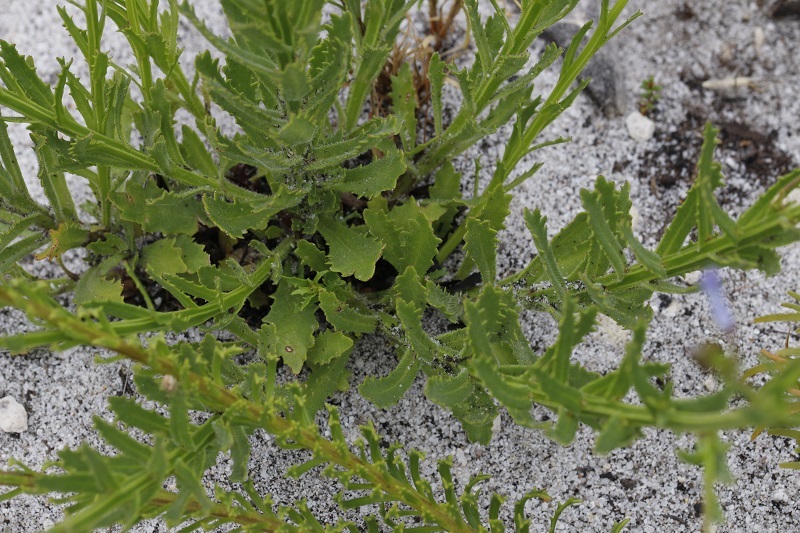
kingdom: Plantae
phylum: Tracheophyta
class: Magnoliopsida
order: Asterales
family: Campanulaceae
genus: Lobelia
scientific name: Lobelia comosa
